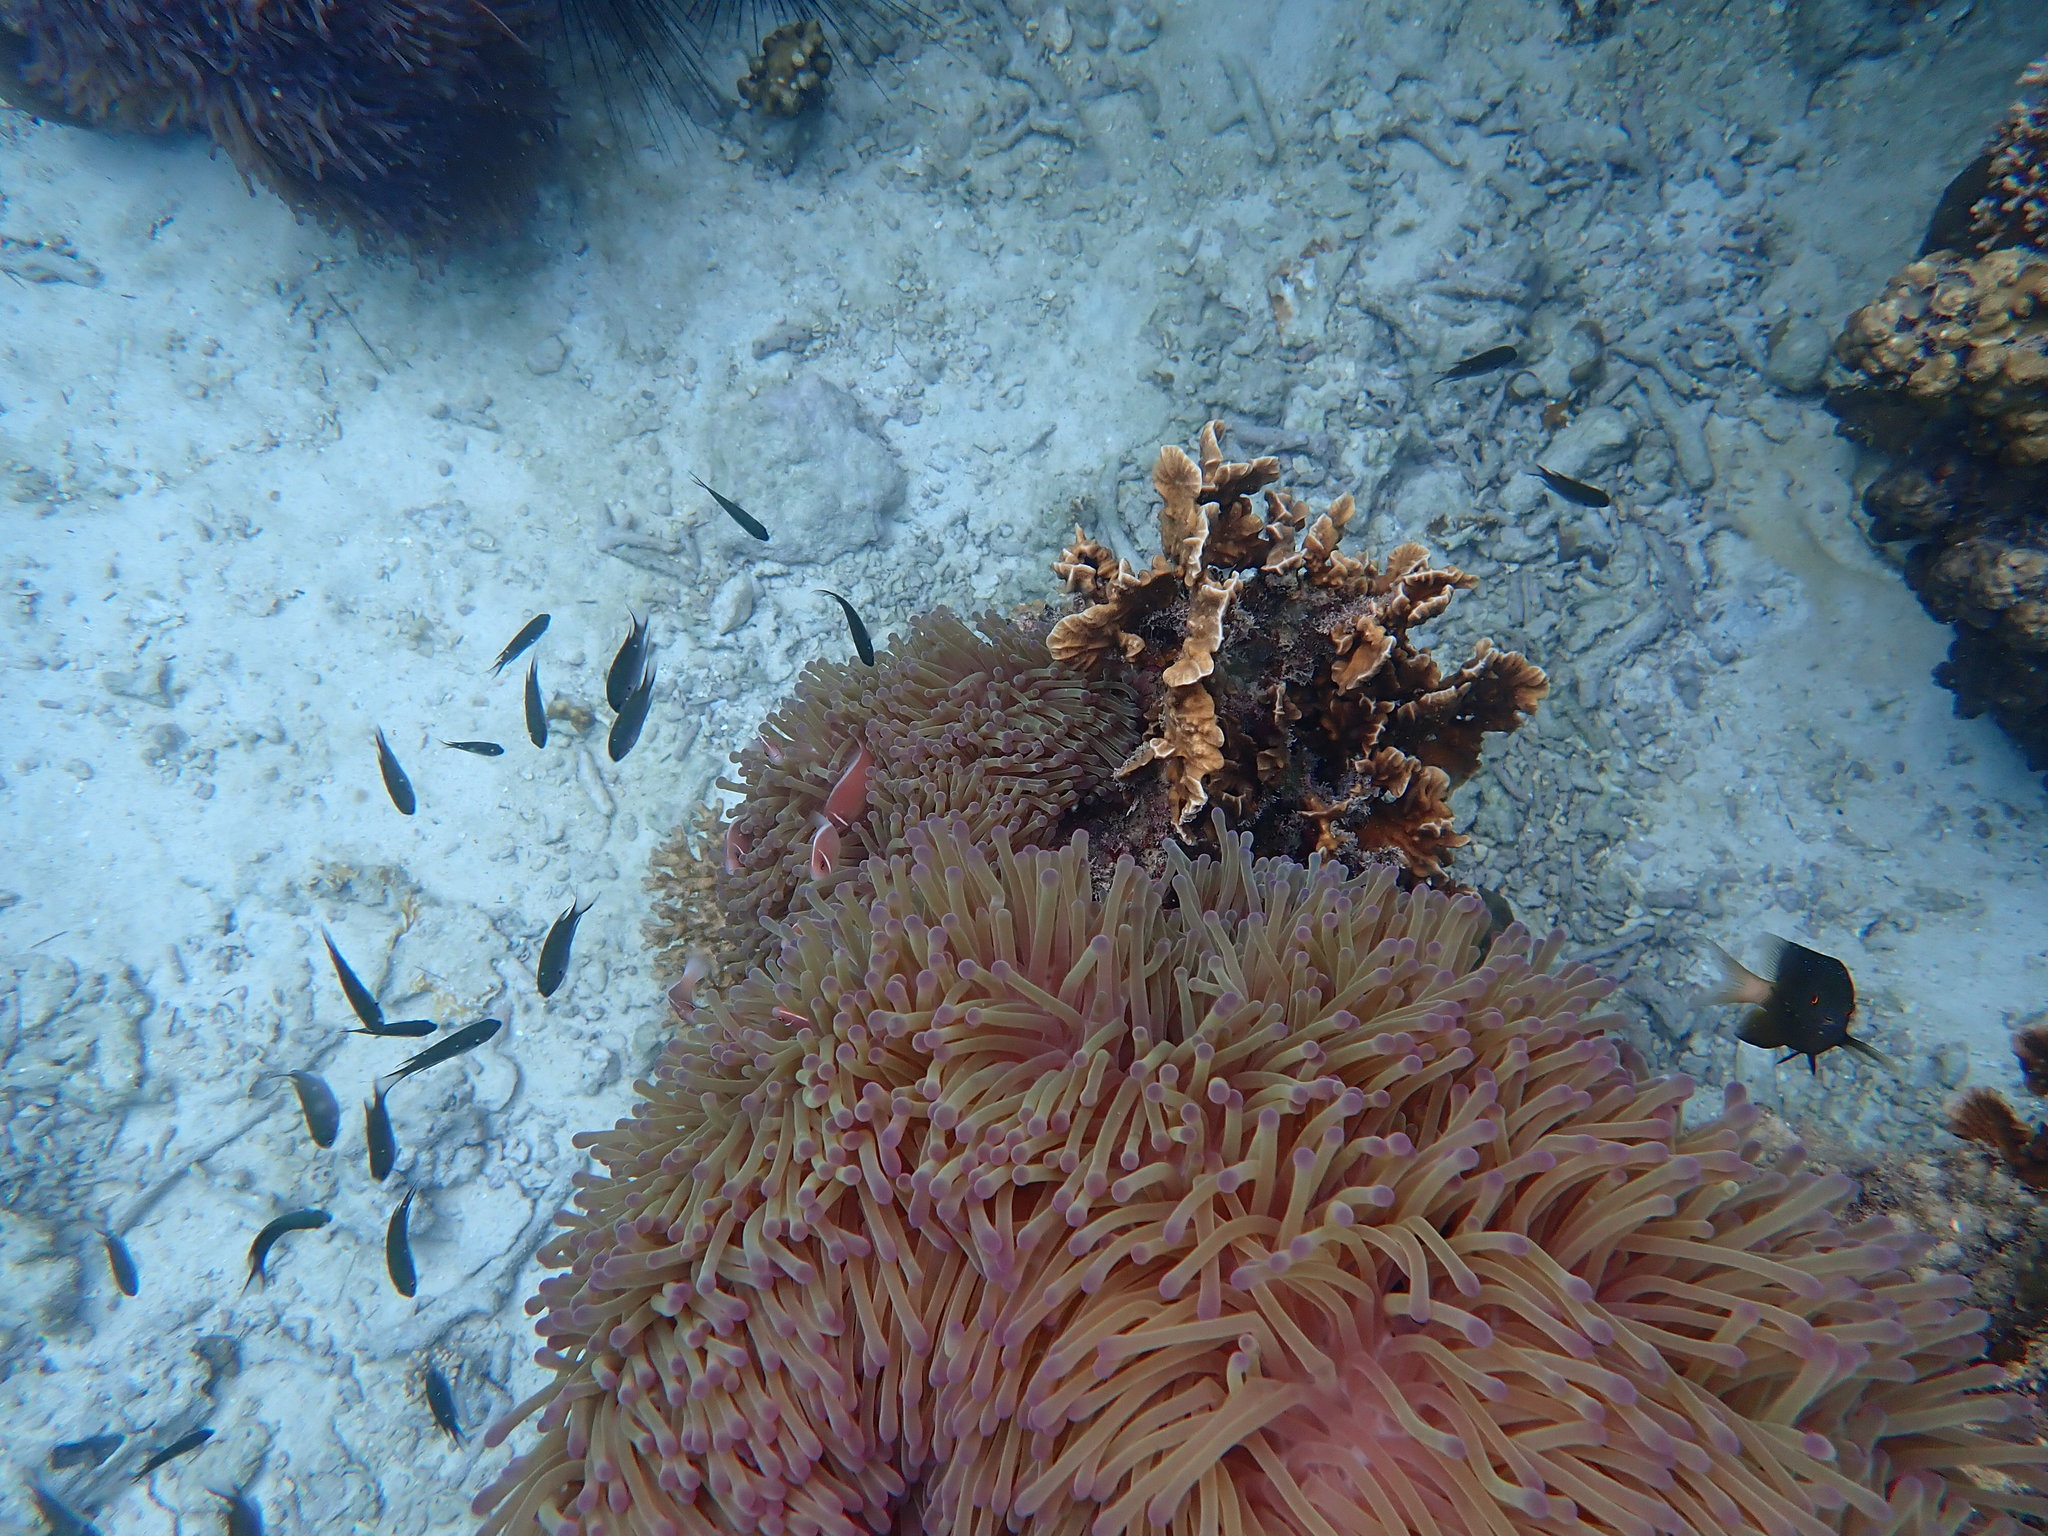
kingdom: Animalia
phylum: Chordata
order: Perciformes
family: Pomacentridae
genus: Amphiprion
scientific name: Amphiprion perideraion
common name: Pink anemonefish
